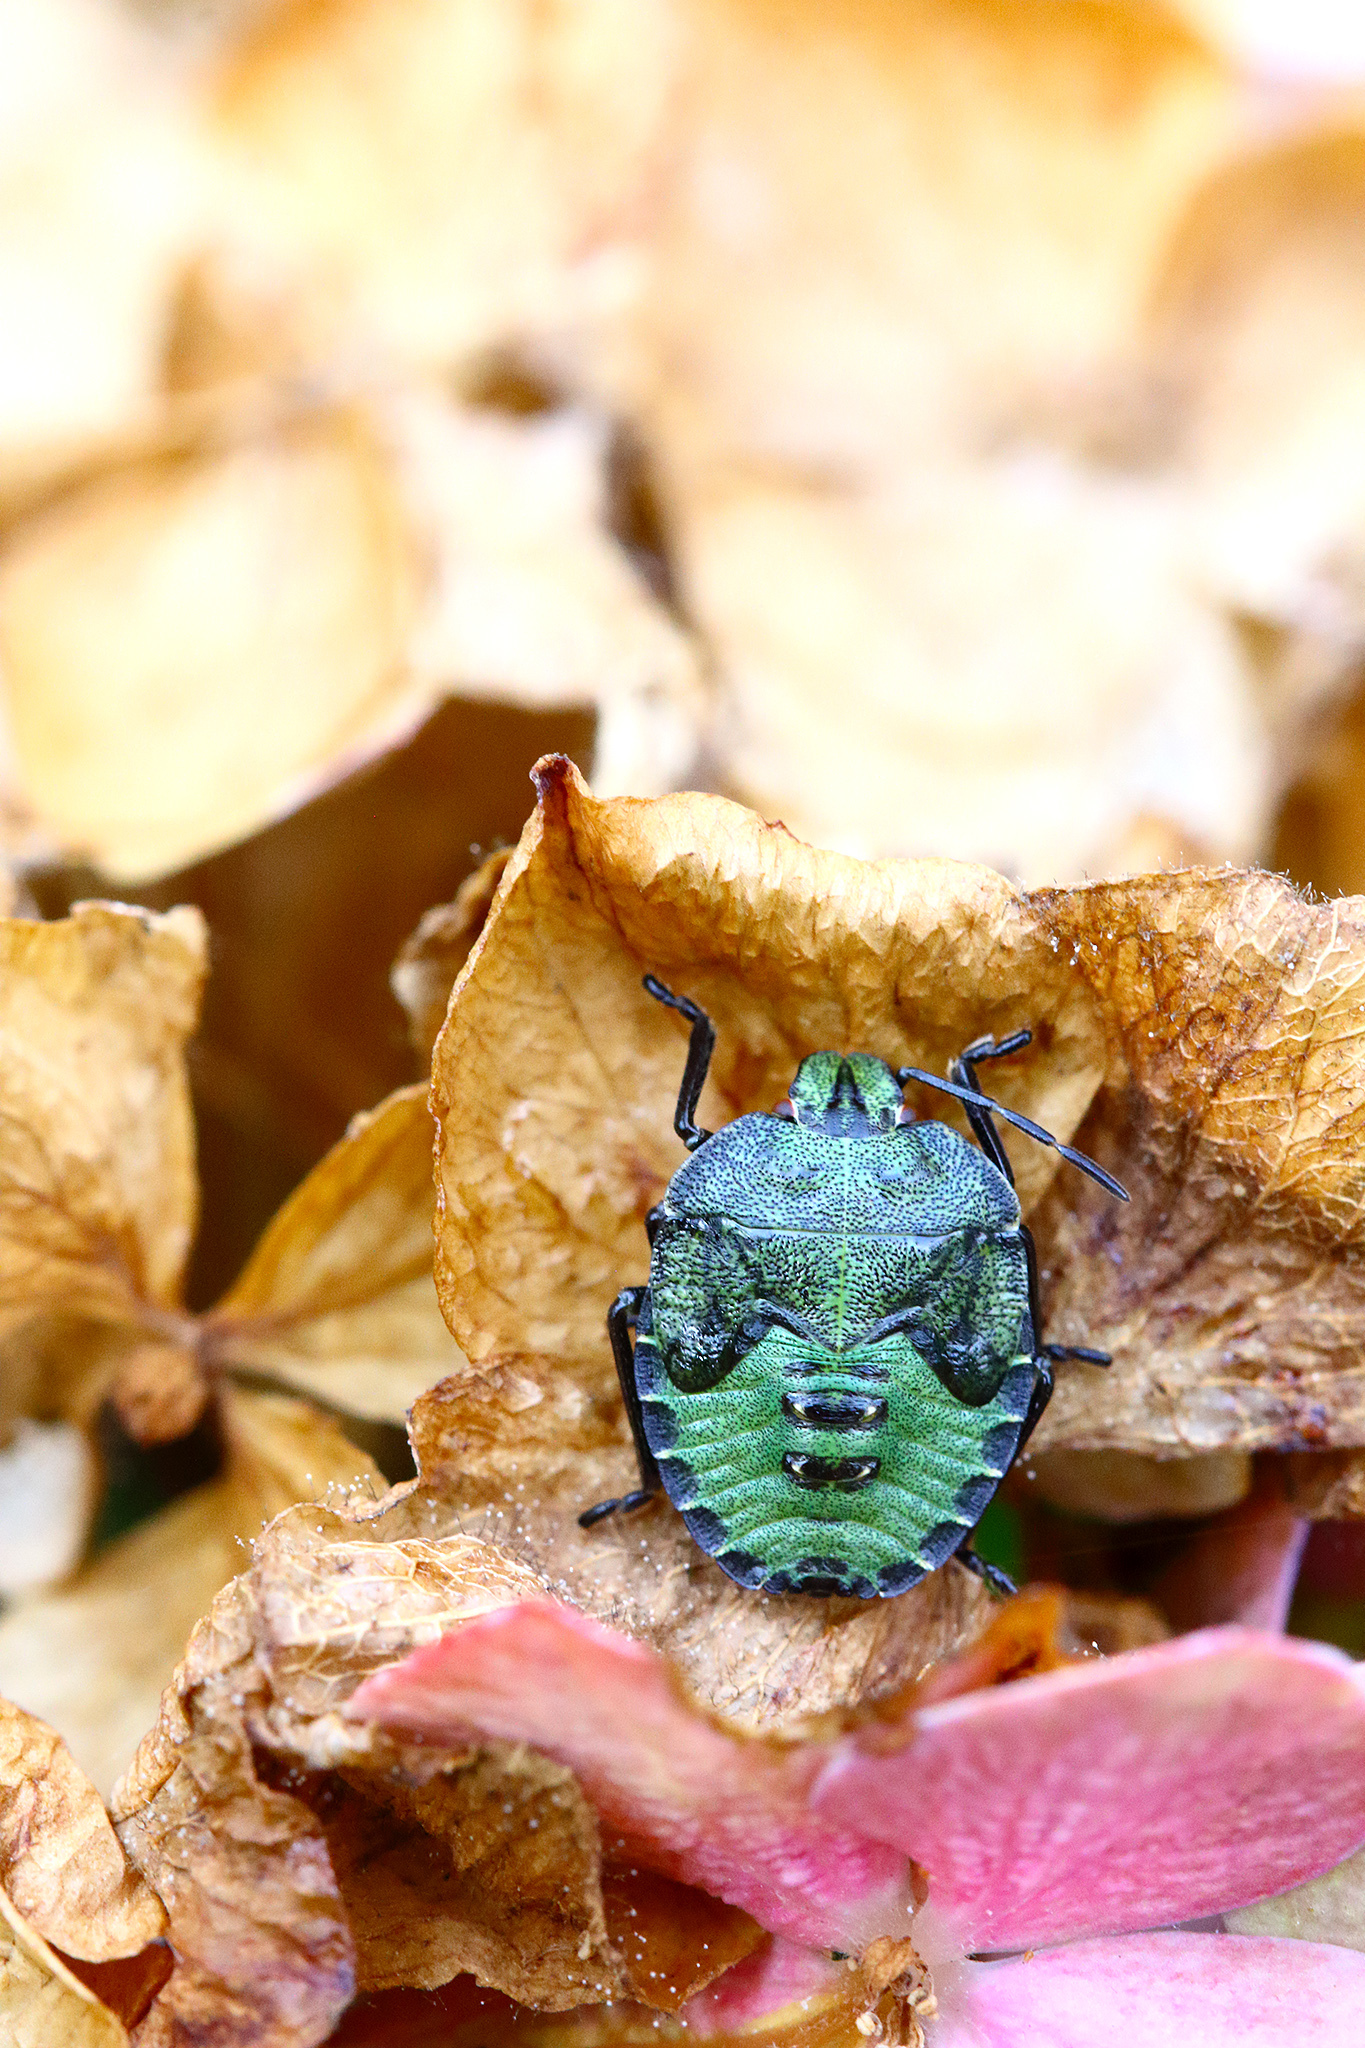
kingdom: Animalia
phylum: Arthropoda
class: Insecta
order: Hemiptera
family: Pentatomidae
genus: Palomena
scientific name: Palomena prasina
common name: Green shieldbug
